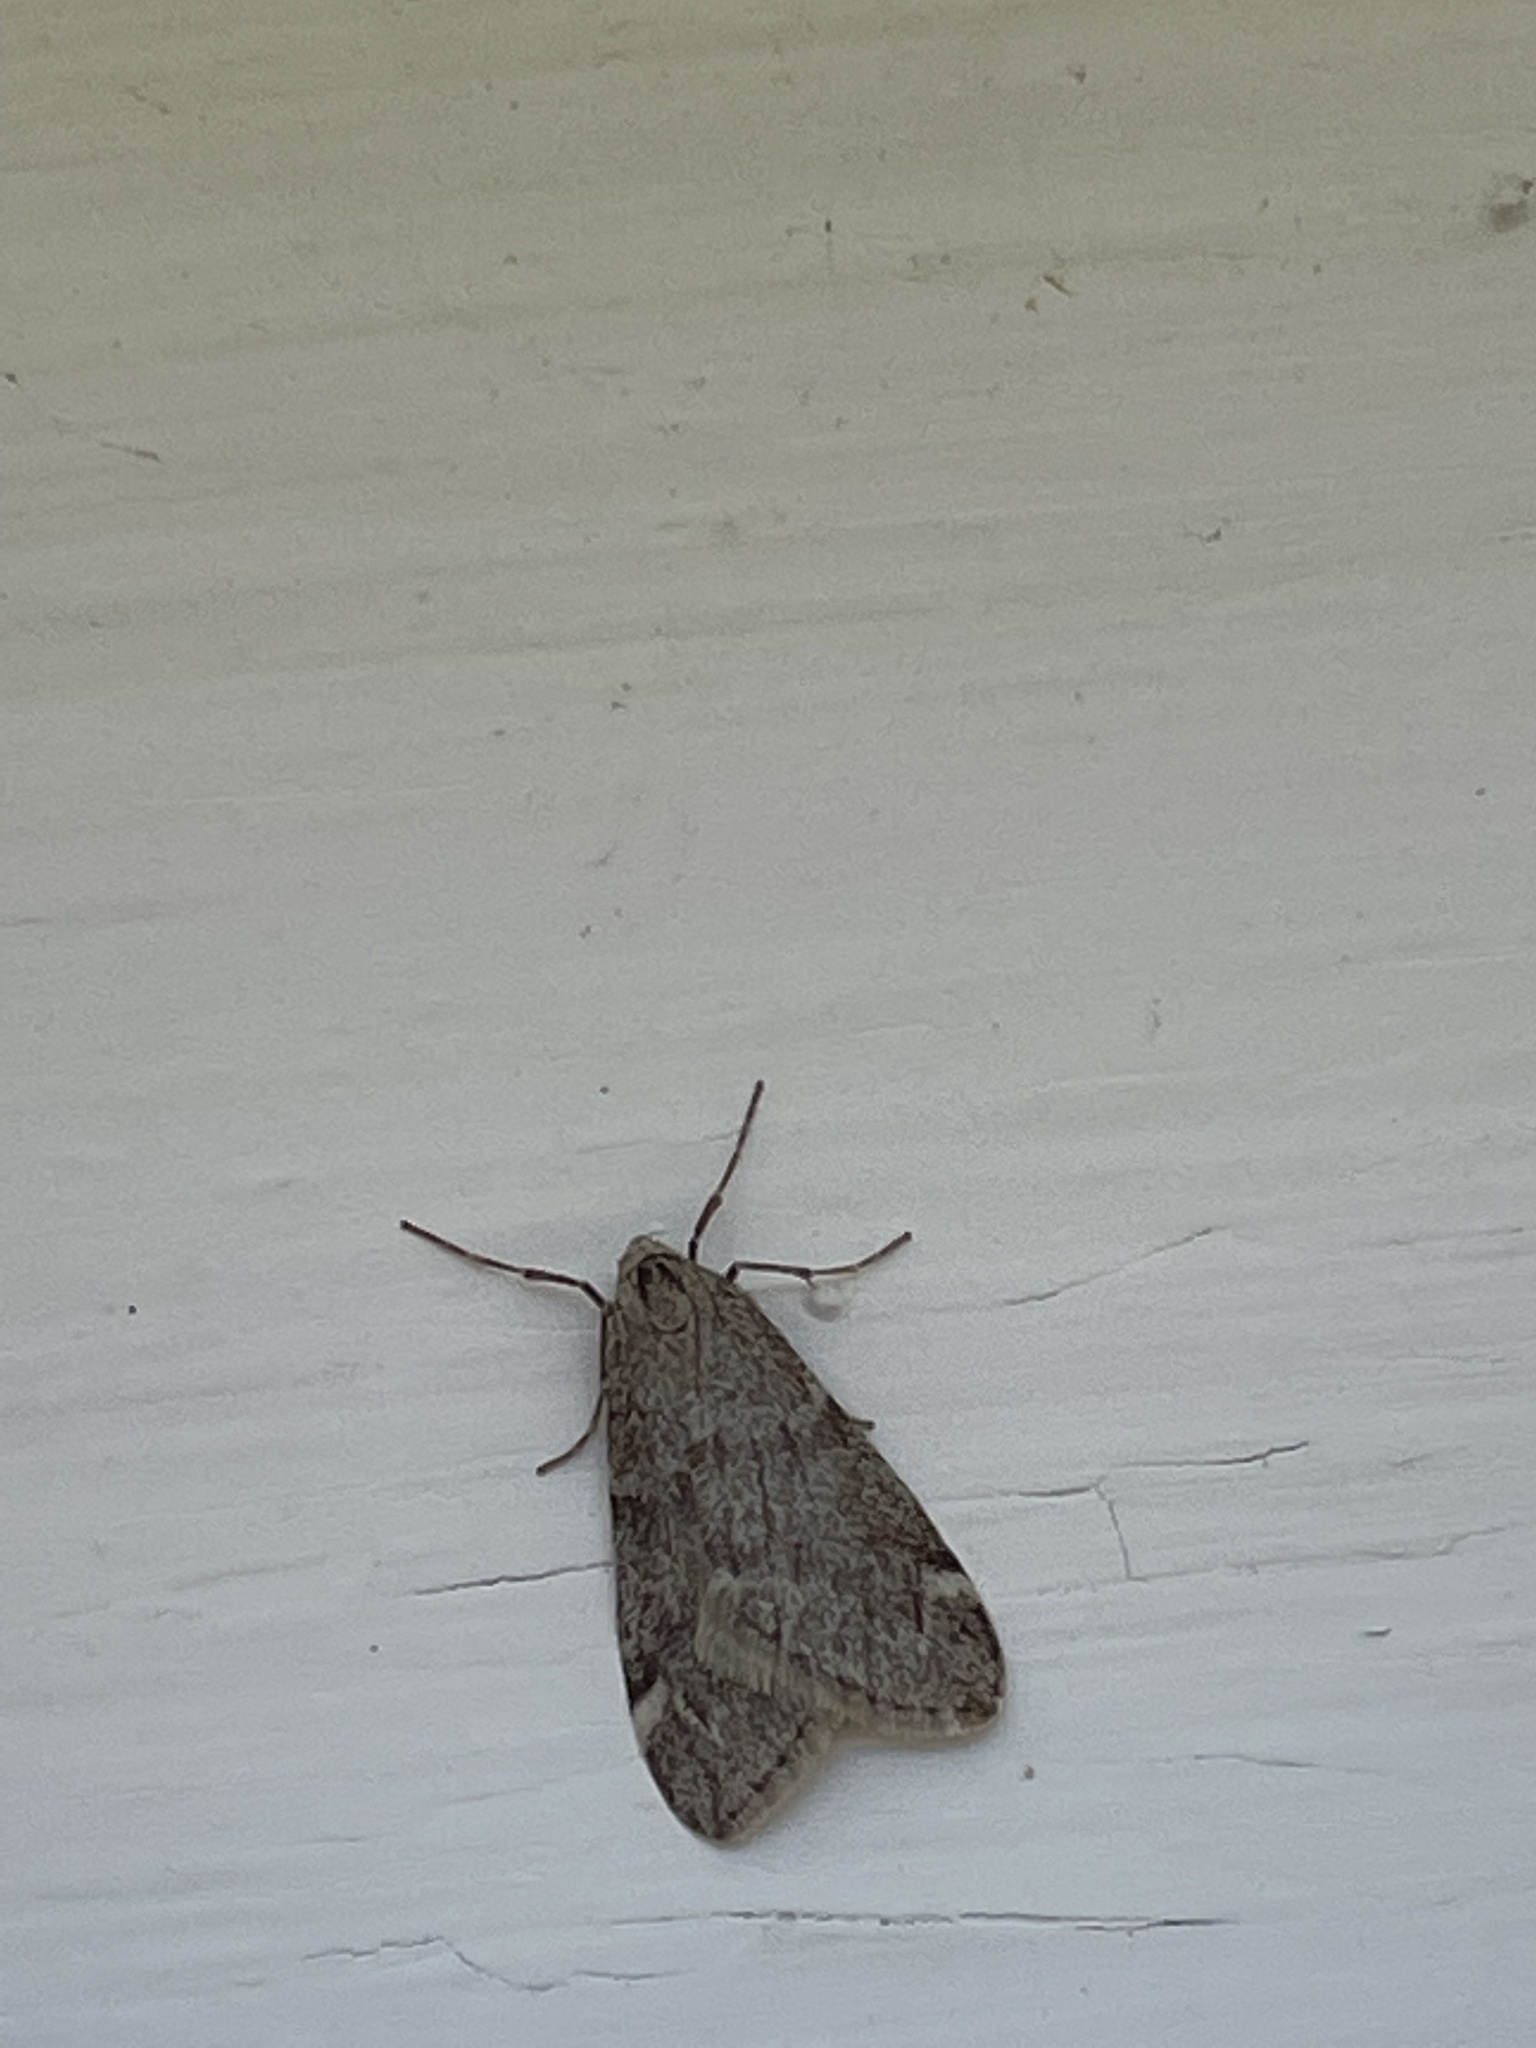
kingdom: Animalia
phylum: Arthropoda
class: Insecta
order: Lepidoptera
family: Geometridae
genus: Alsophila
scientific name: Alsophila pometaria
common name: Fall cankerworm
